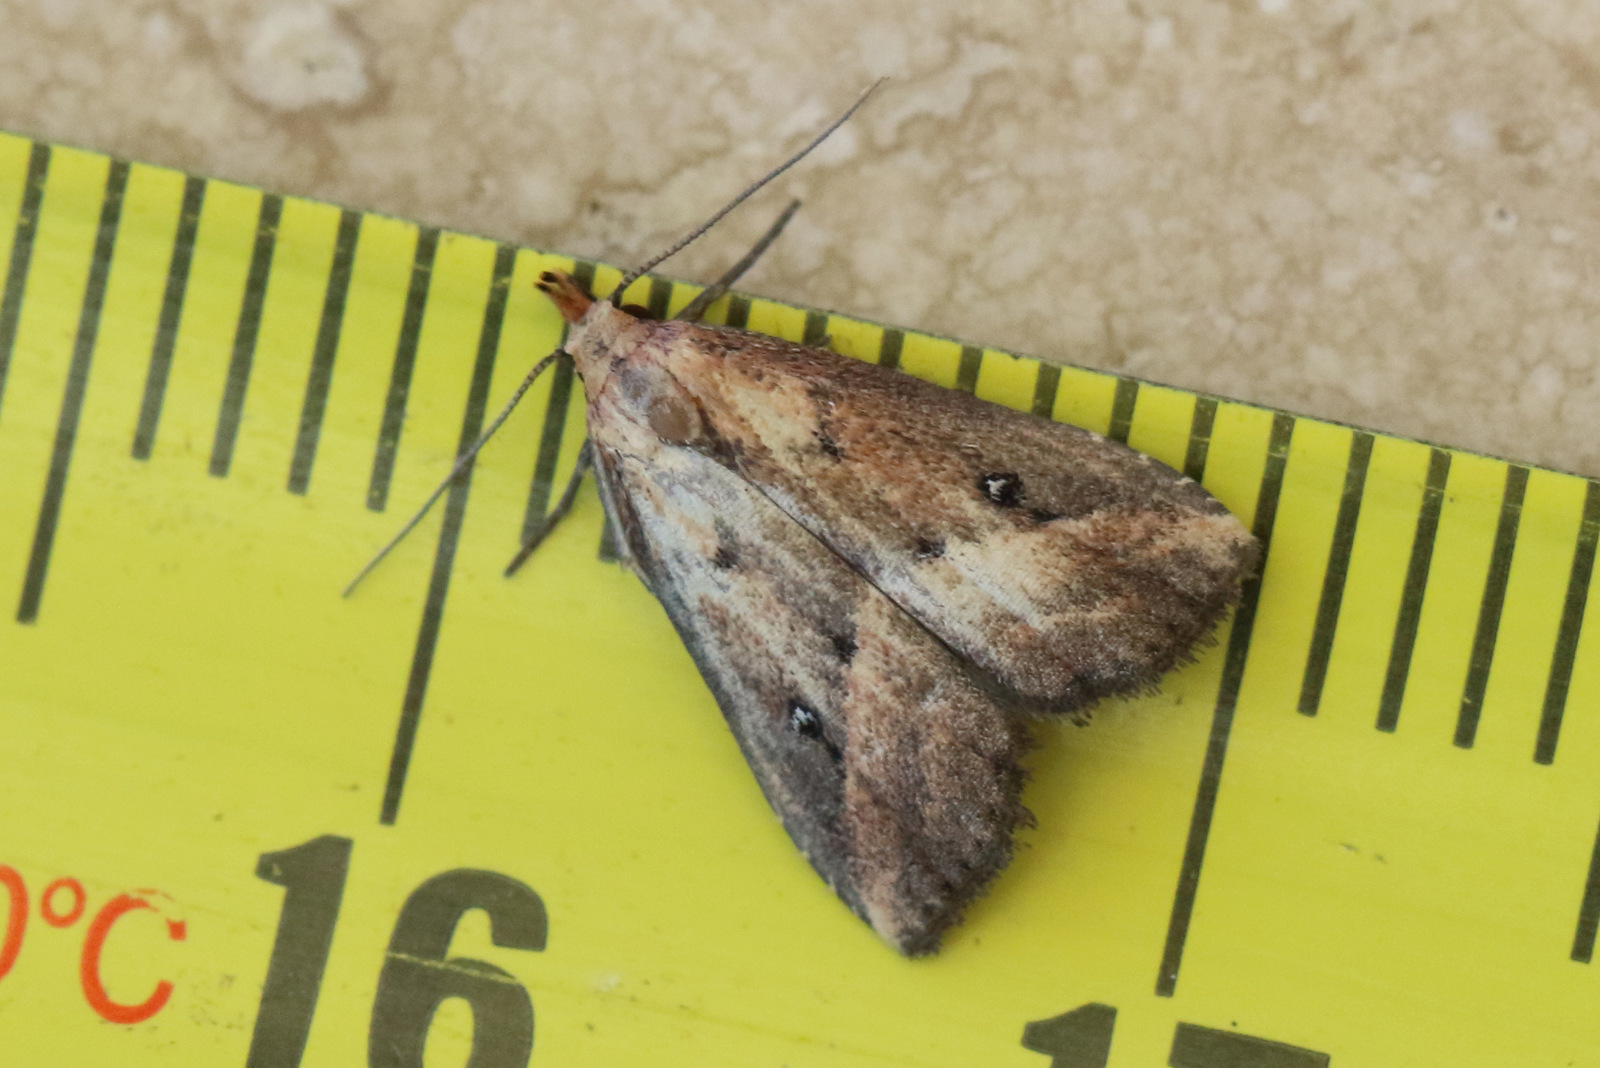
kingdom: Animalia
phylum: Arthropoda
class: Insecta
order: Lepidoptera
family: Erebidae
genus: Luceria
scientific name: Luceria oculalis
